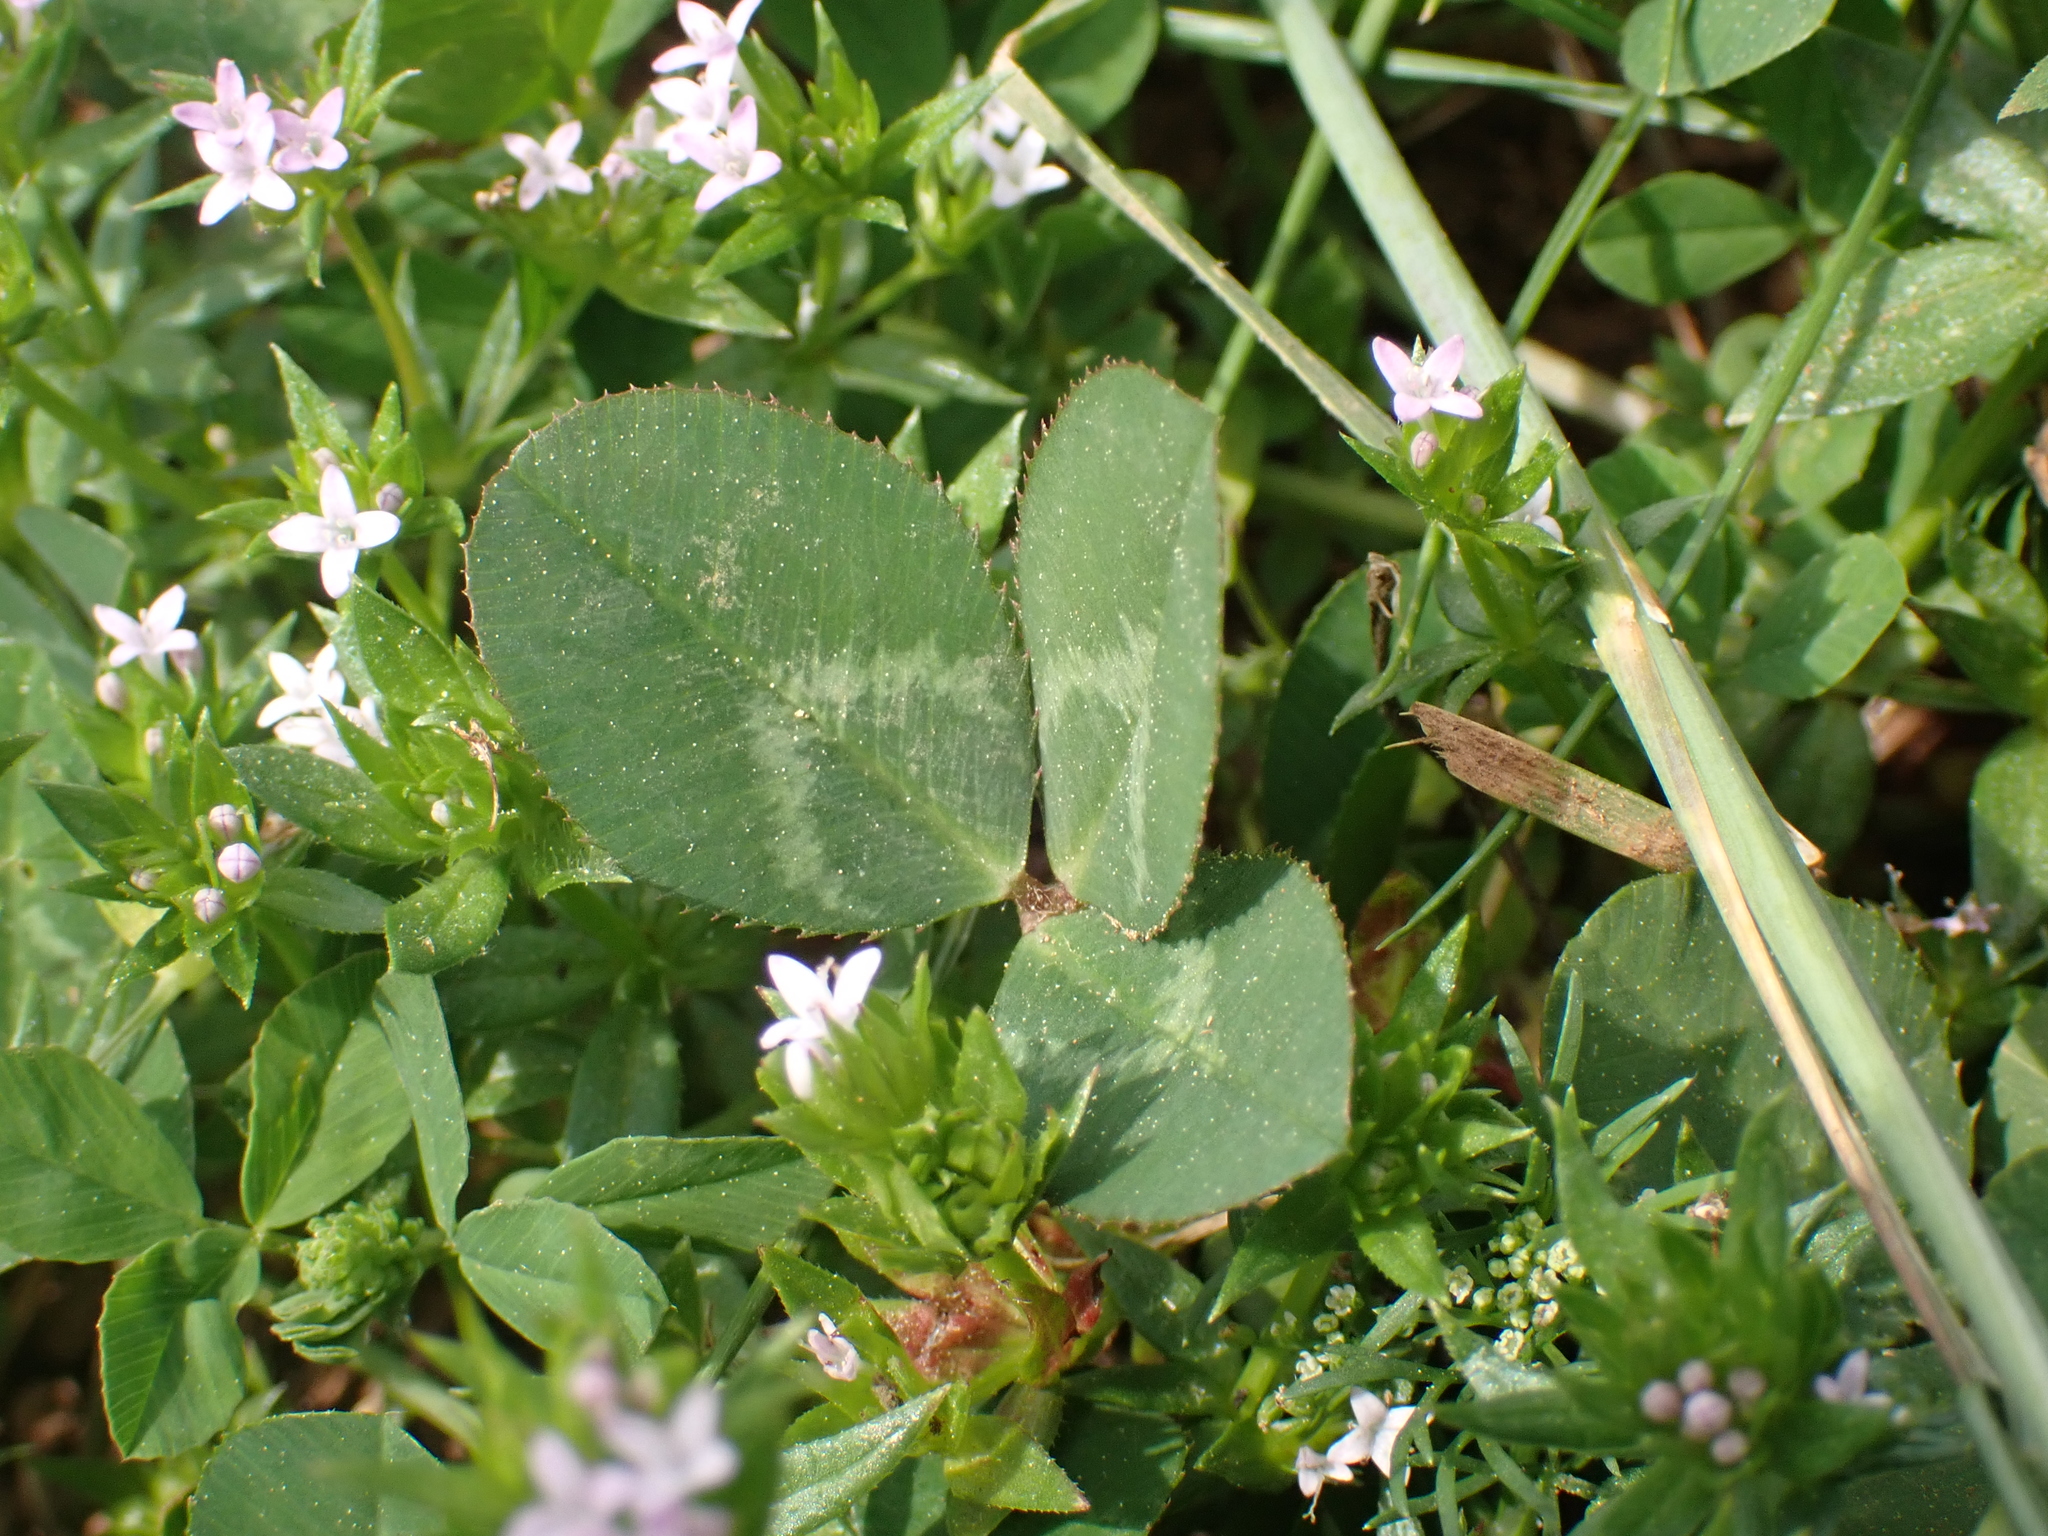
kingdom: Plantae
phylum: Tracheophyta
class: Magnoliopsida
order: Fabales
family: Fabaceae
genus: Trifolium
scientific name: Trifolium repens
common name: White clover
